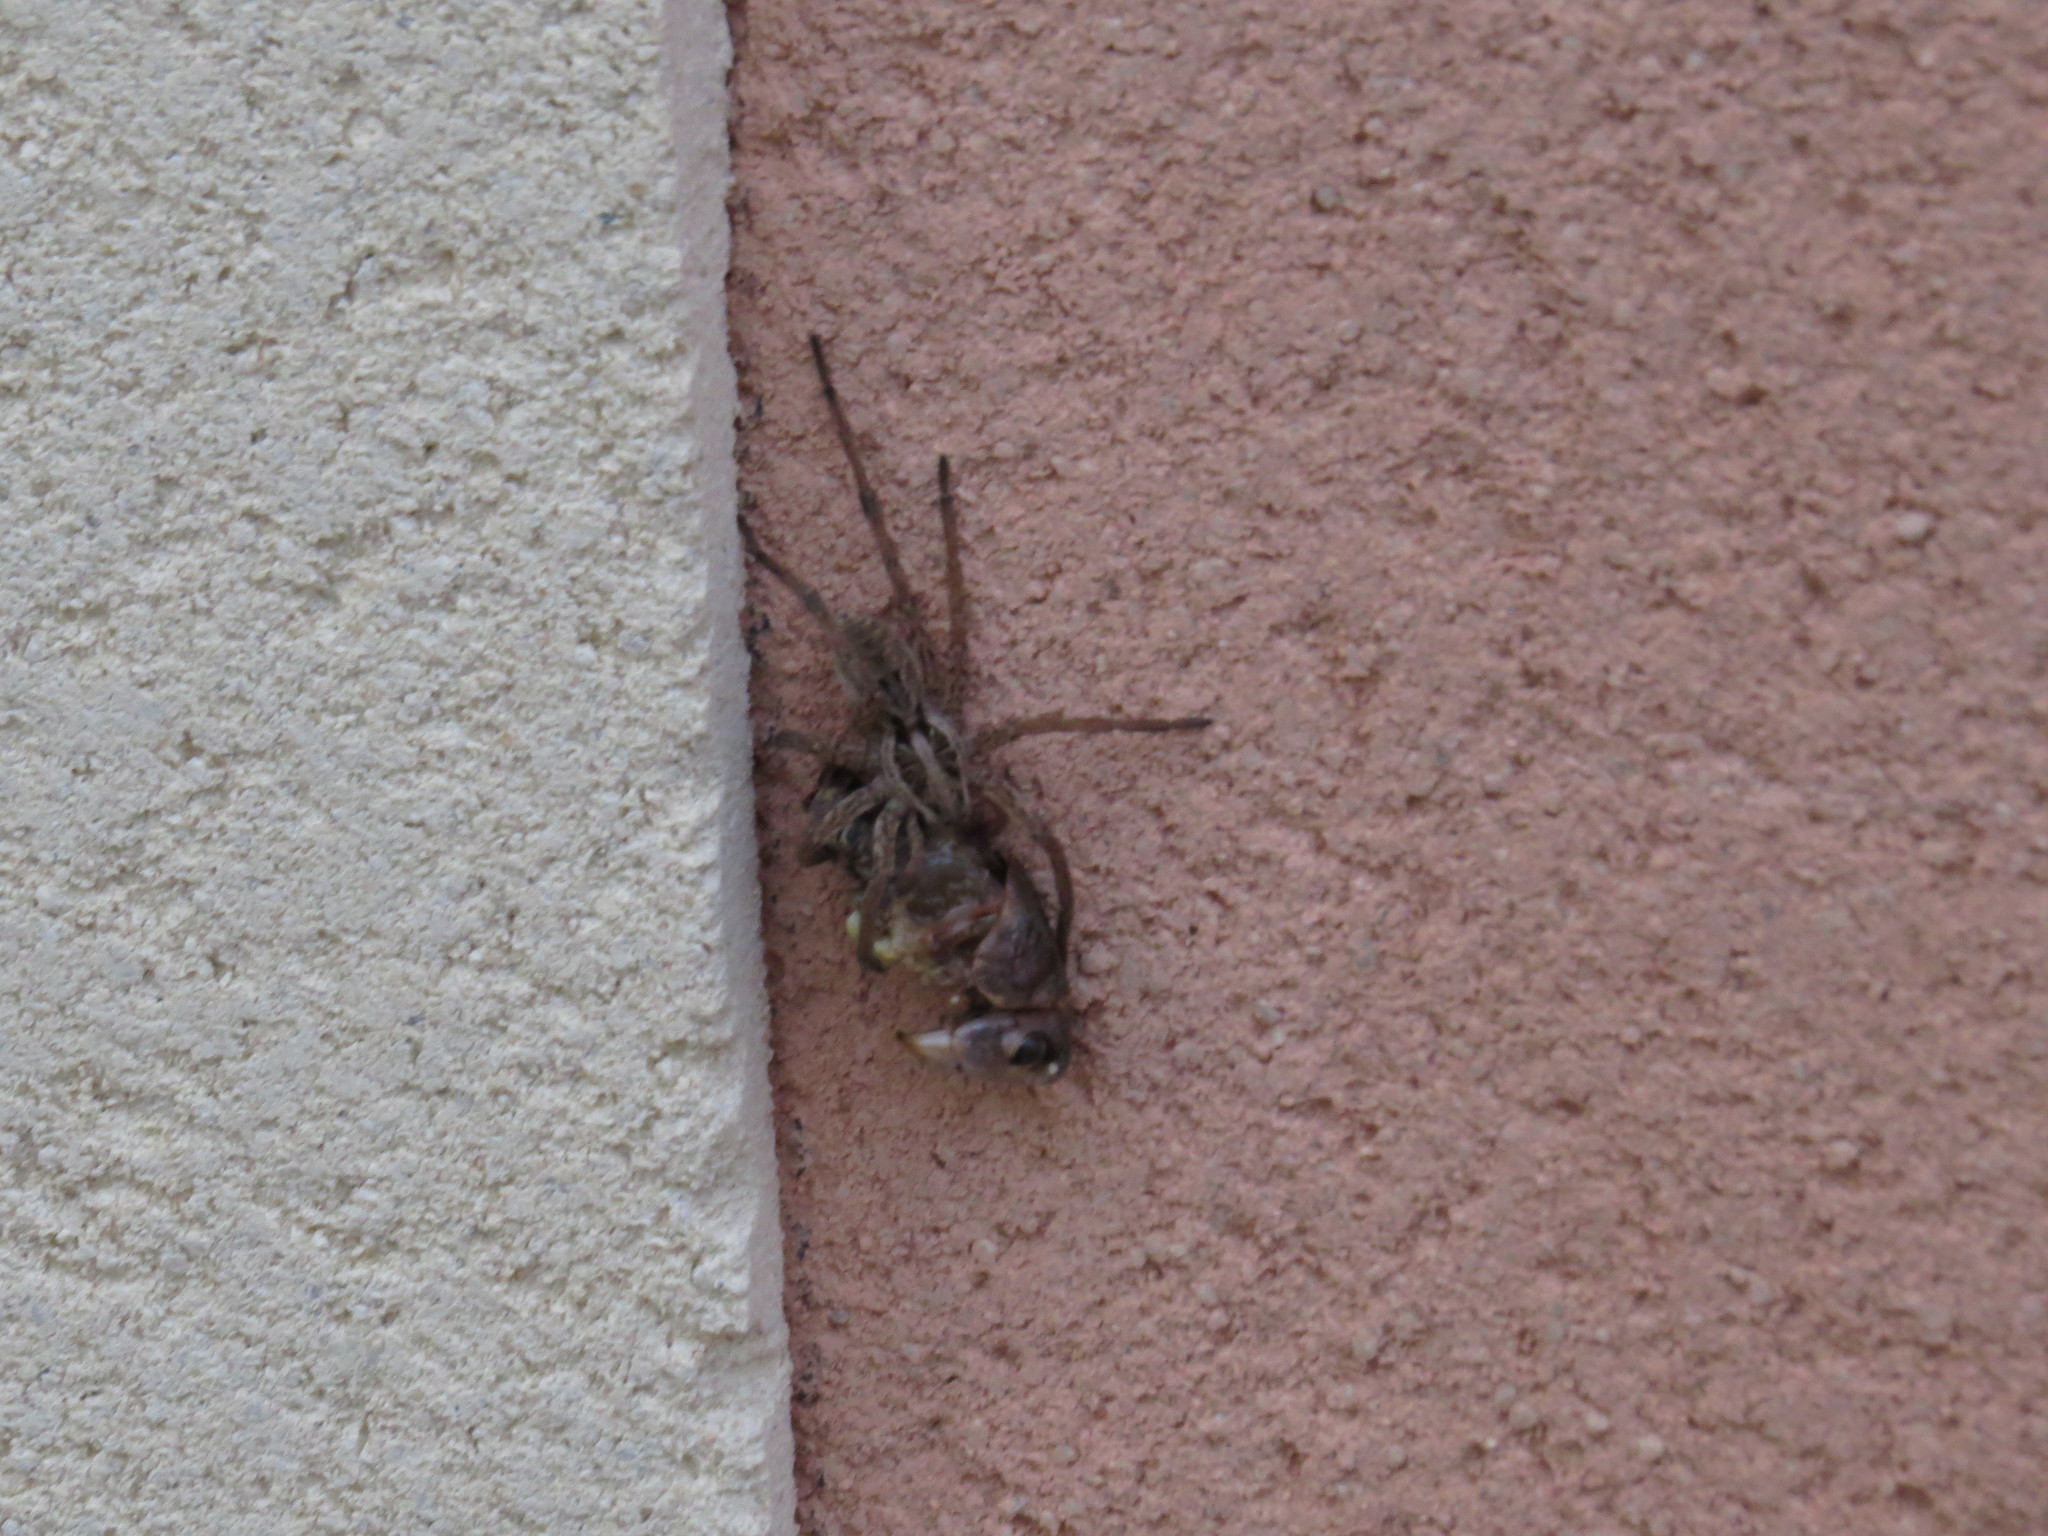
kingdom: Animalia
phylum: Arthropoda
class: Arachnida
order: Araneae
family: Lycosidae
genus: Hogna
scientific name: Hogna radiata
